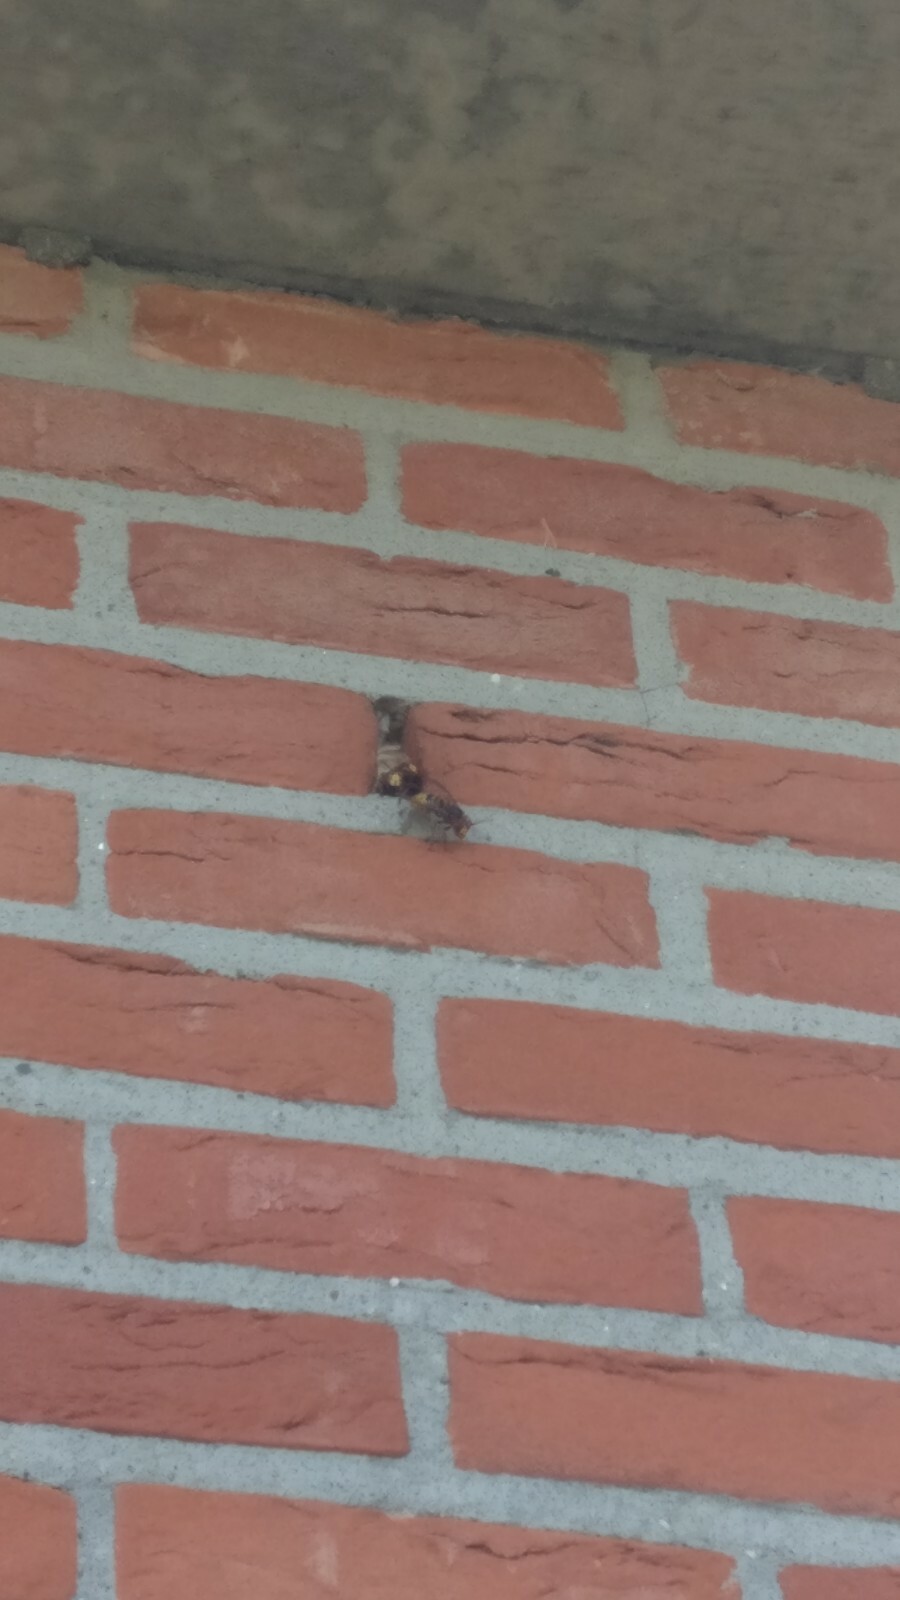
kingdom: Animalia
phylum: Arthropoda
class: Insecta
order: Hymenoptera
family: Vespidae
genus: Vespa
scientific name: Vespa crabro
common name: Hornet
